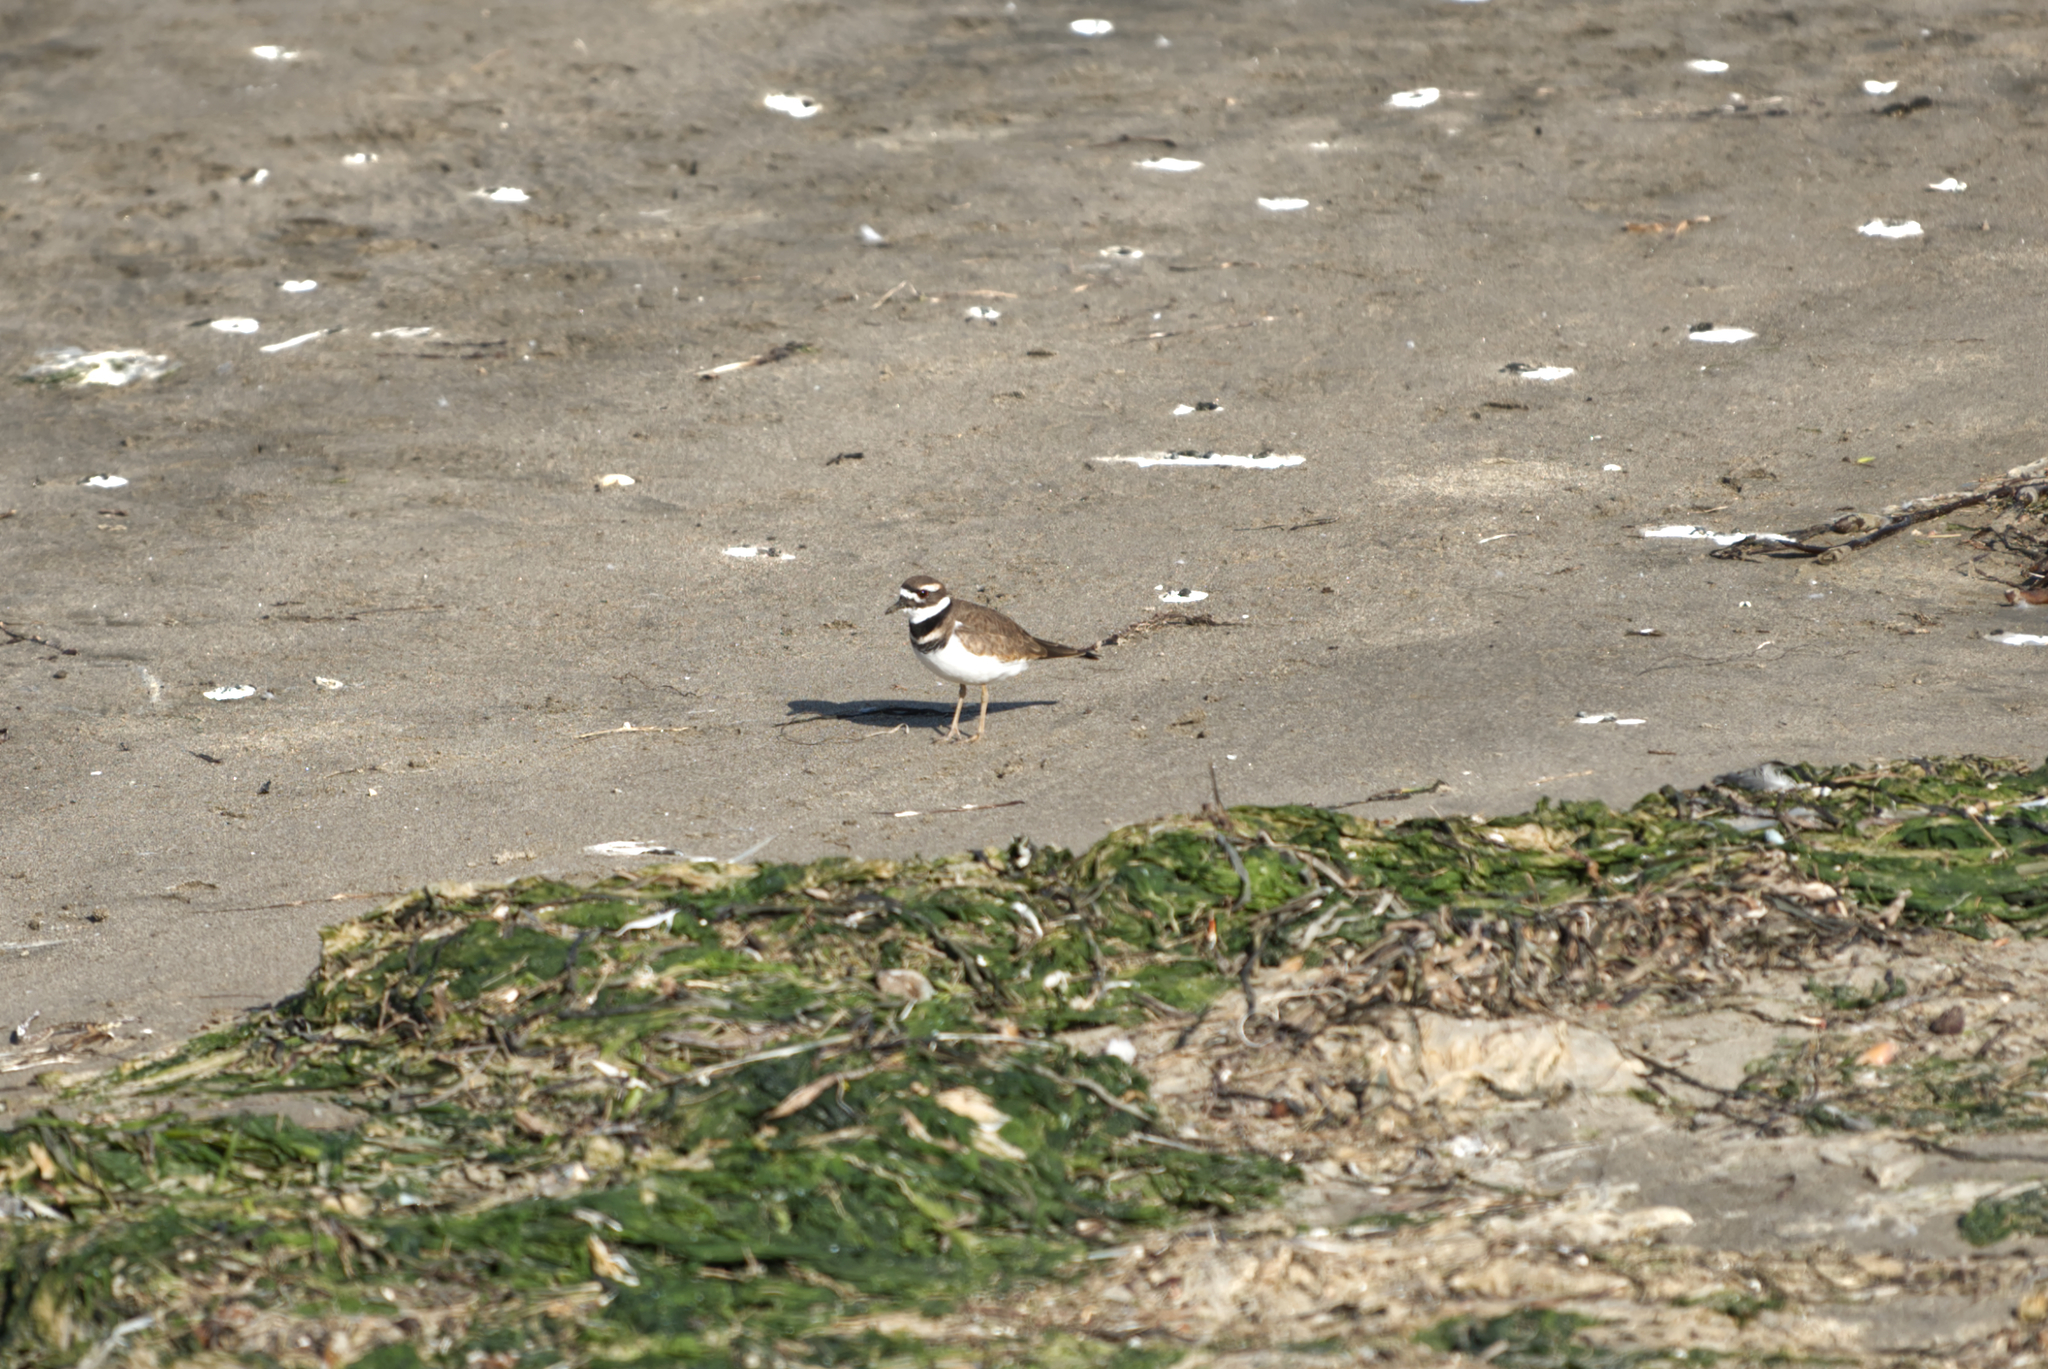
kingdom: Animalia
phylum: Chordata
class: Aves
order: Charadriiformes
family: Charadriidae
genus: Charadrius
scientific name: Charadrius vociferus
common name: Killdeer
